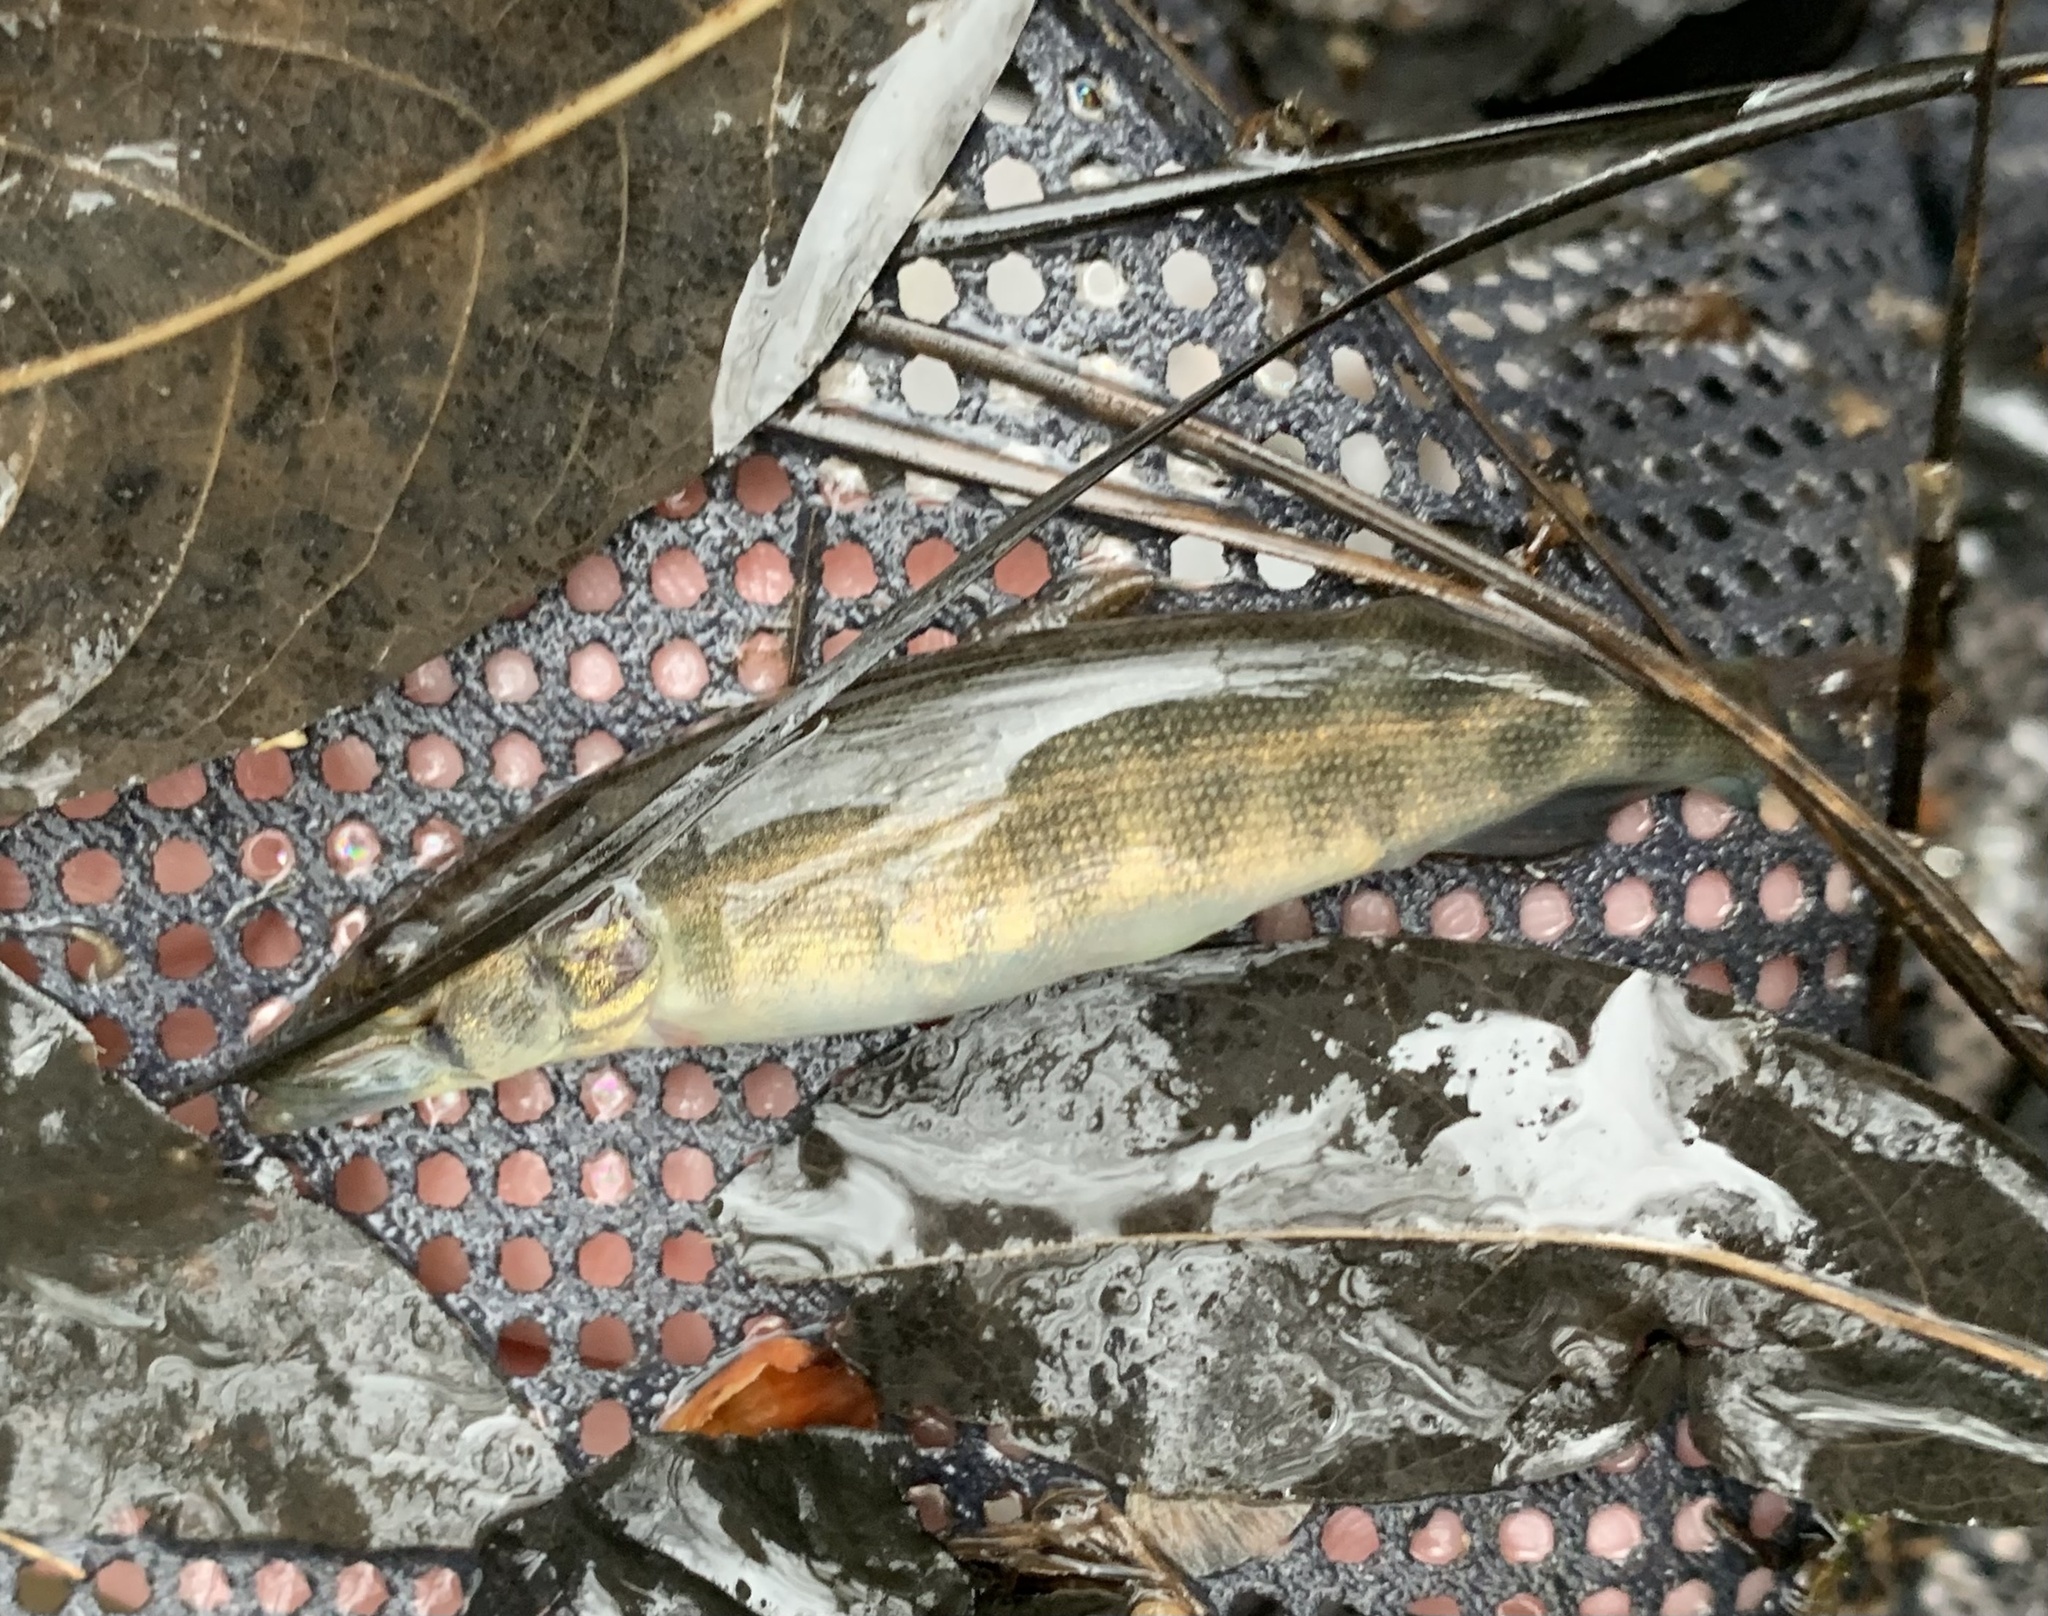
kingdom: Animalia
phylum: Chordata
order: Esociformes
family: Esocidae
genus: Esox
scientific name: Esox americanus
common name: Redfin pickerel
